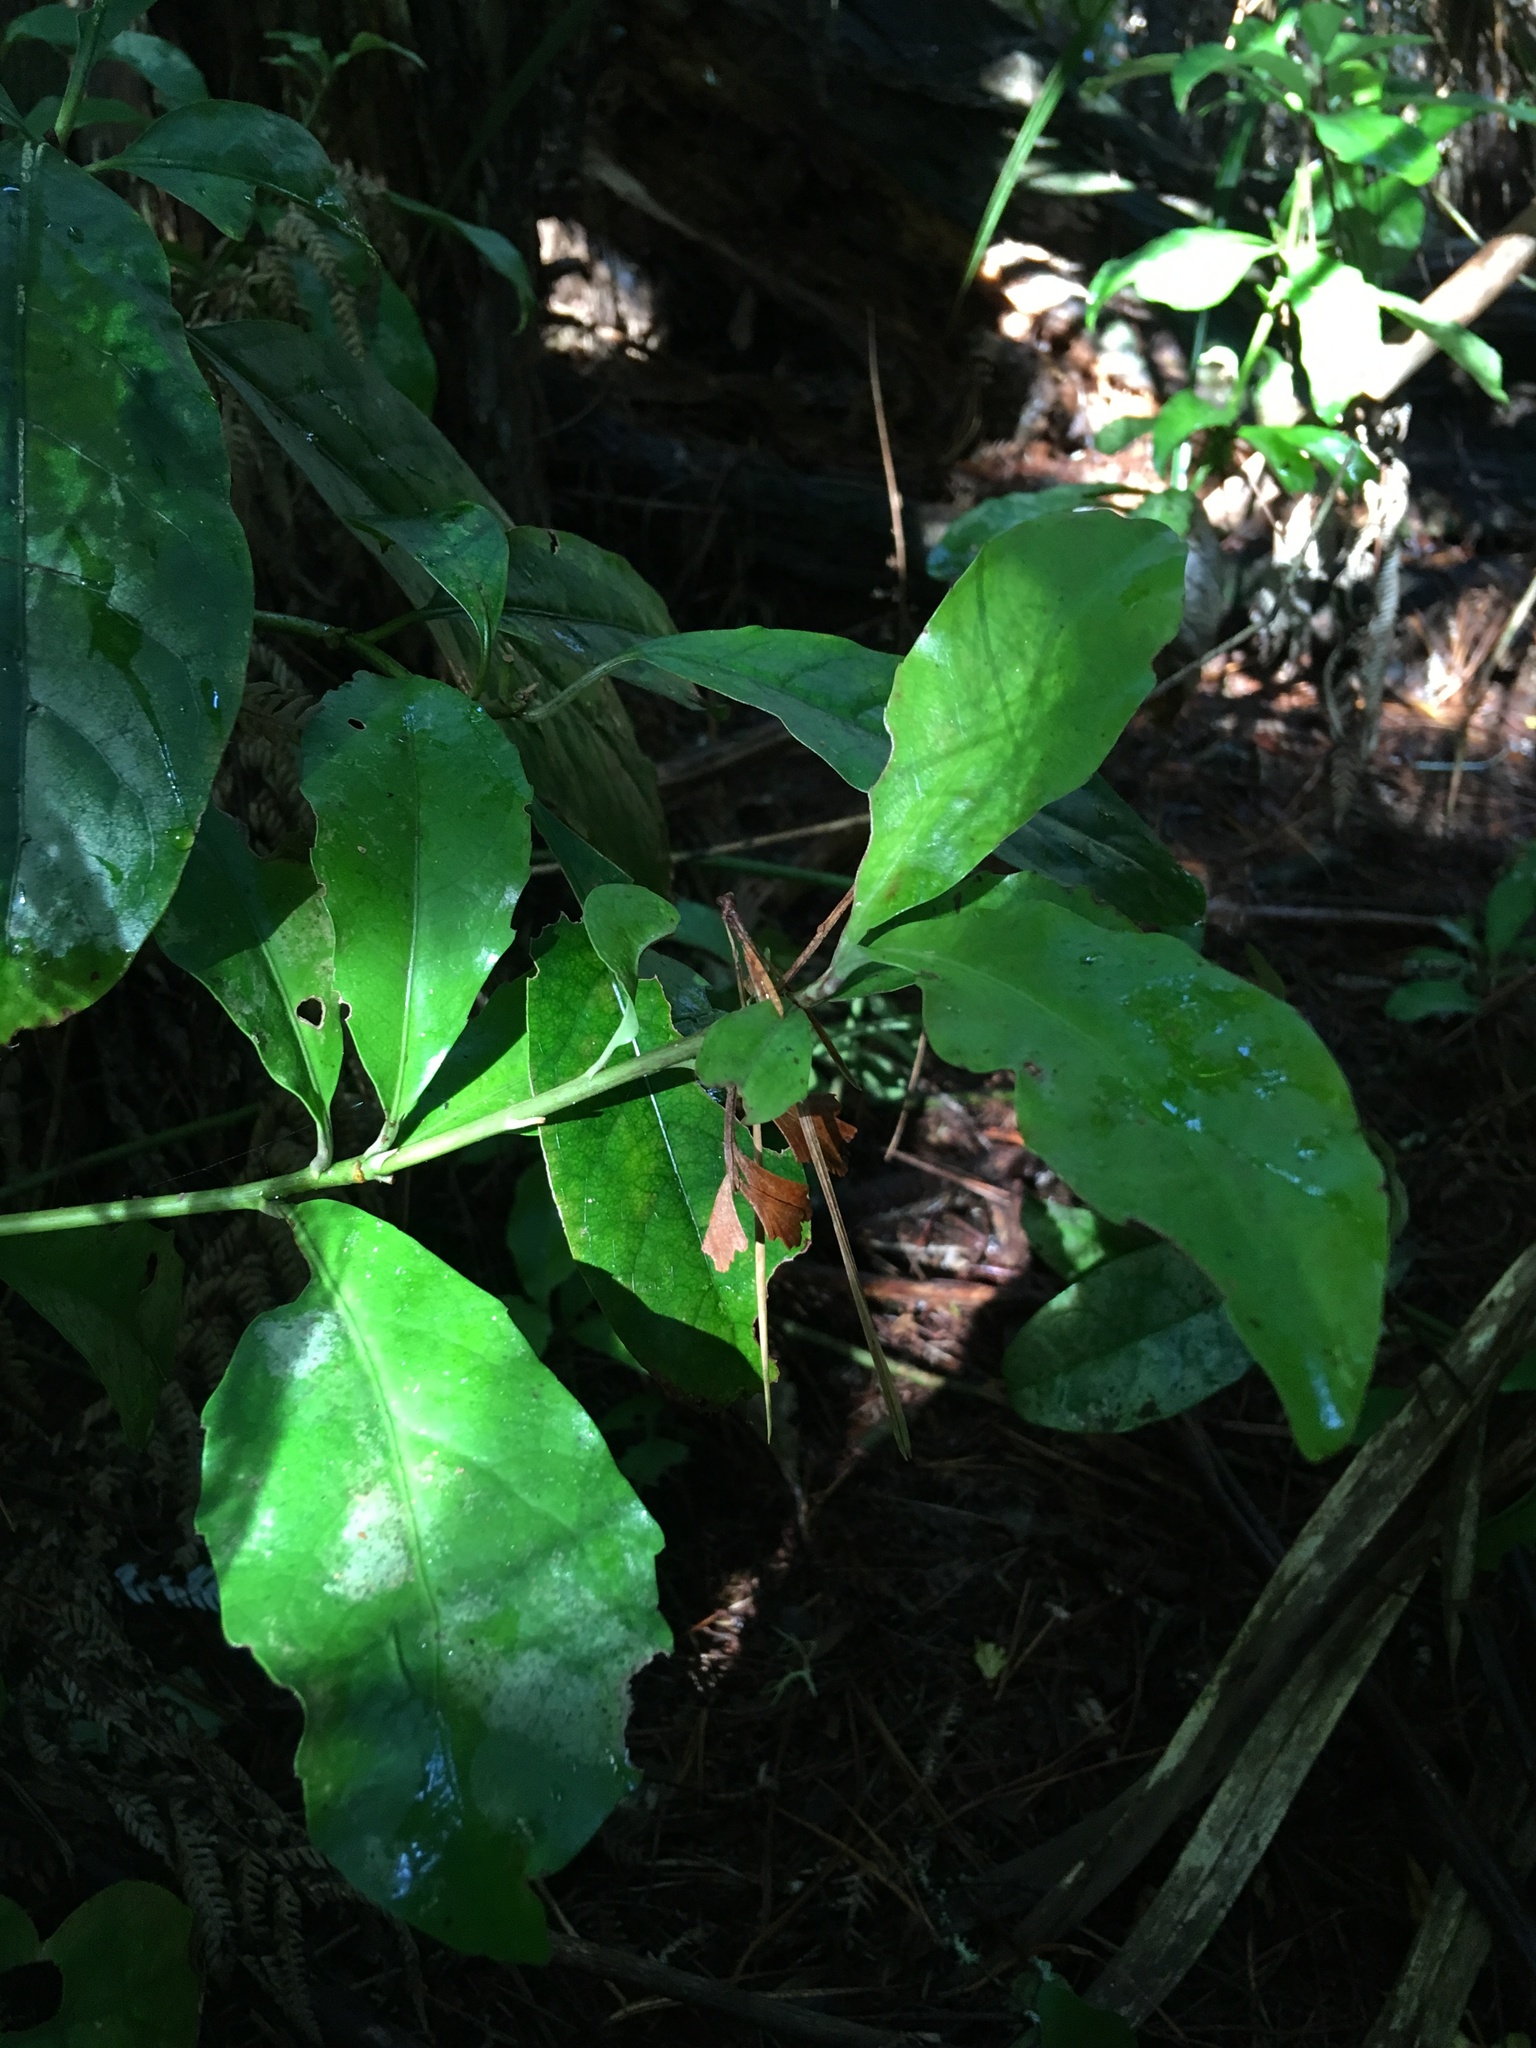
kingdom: Plantae
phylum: Tracheophyta
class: Magnoliopsida
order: Asterales
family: Alseuosmiaceae
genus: Alseuosmia
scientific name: Alseuosmia macrophylla
